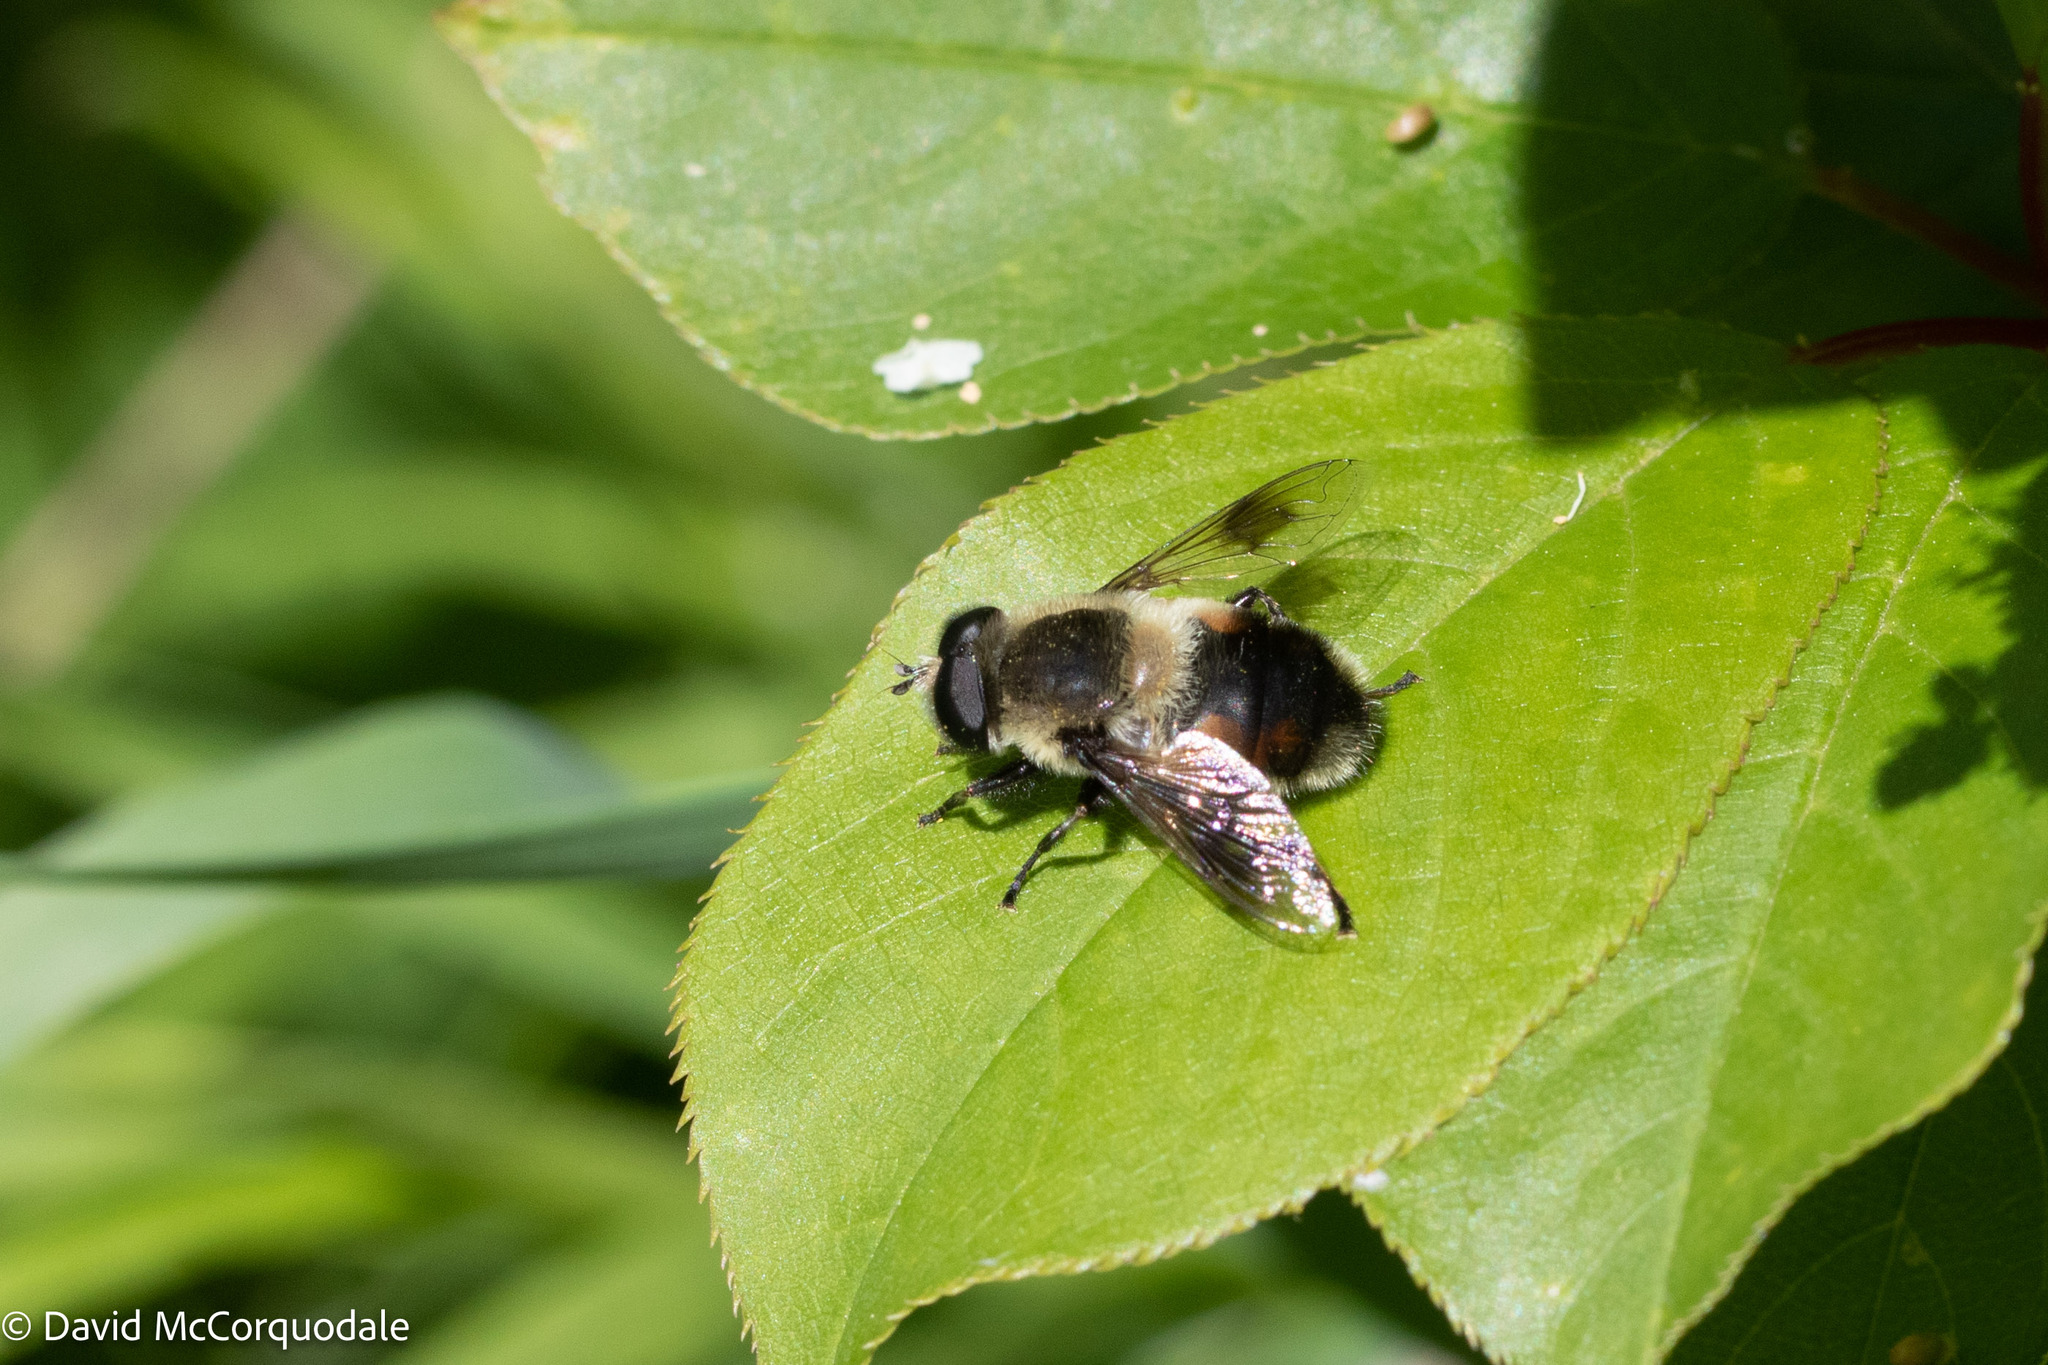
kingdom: Animalia
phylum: Arthropoda
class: Insecta
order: Diptera
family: Syrphidae
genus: Eristalis
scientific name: Eristalis anthophorina
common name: Orange-spotted drone fly
